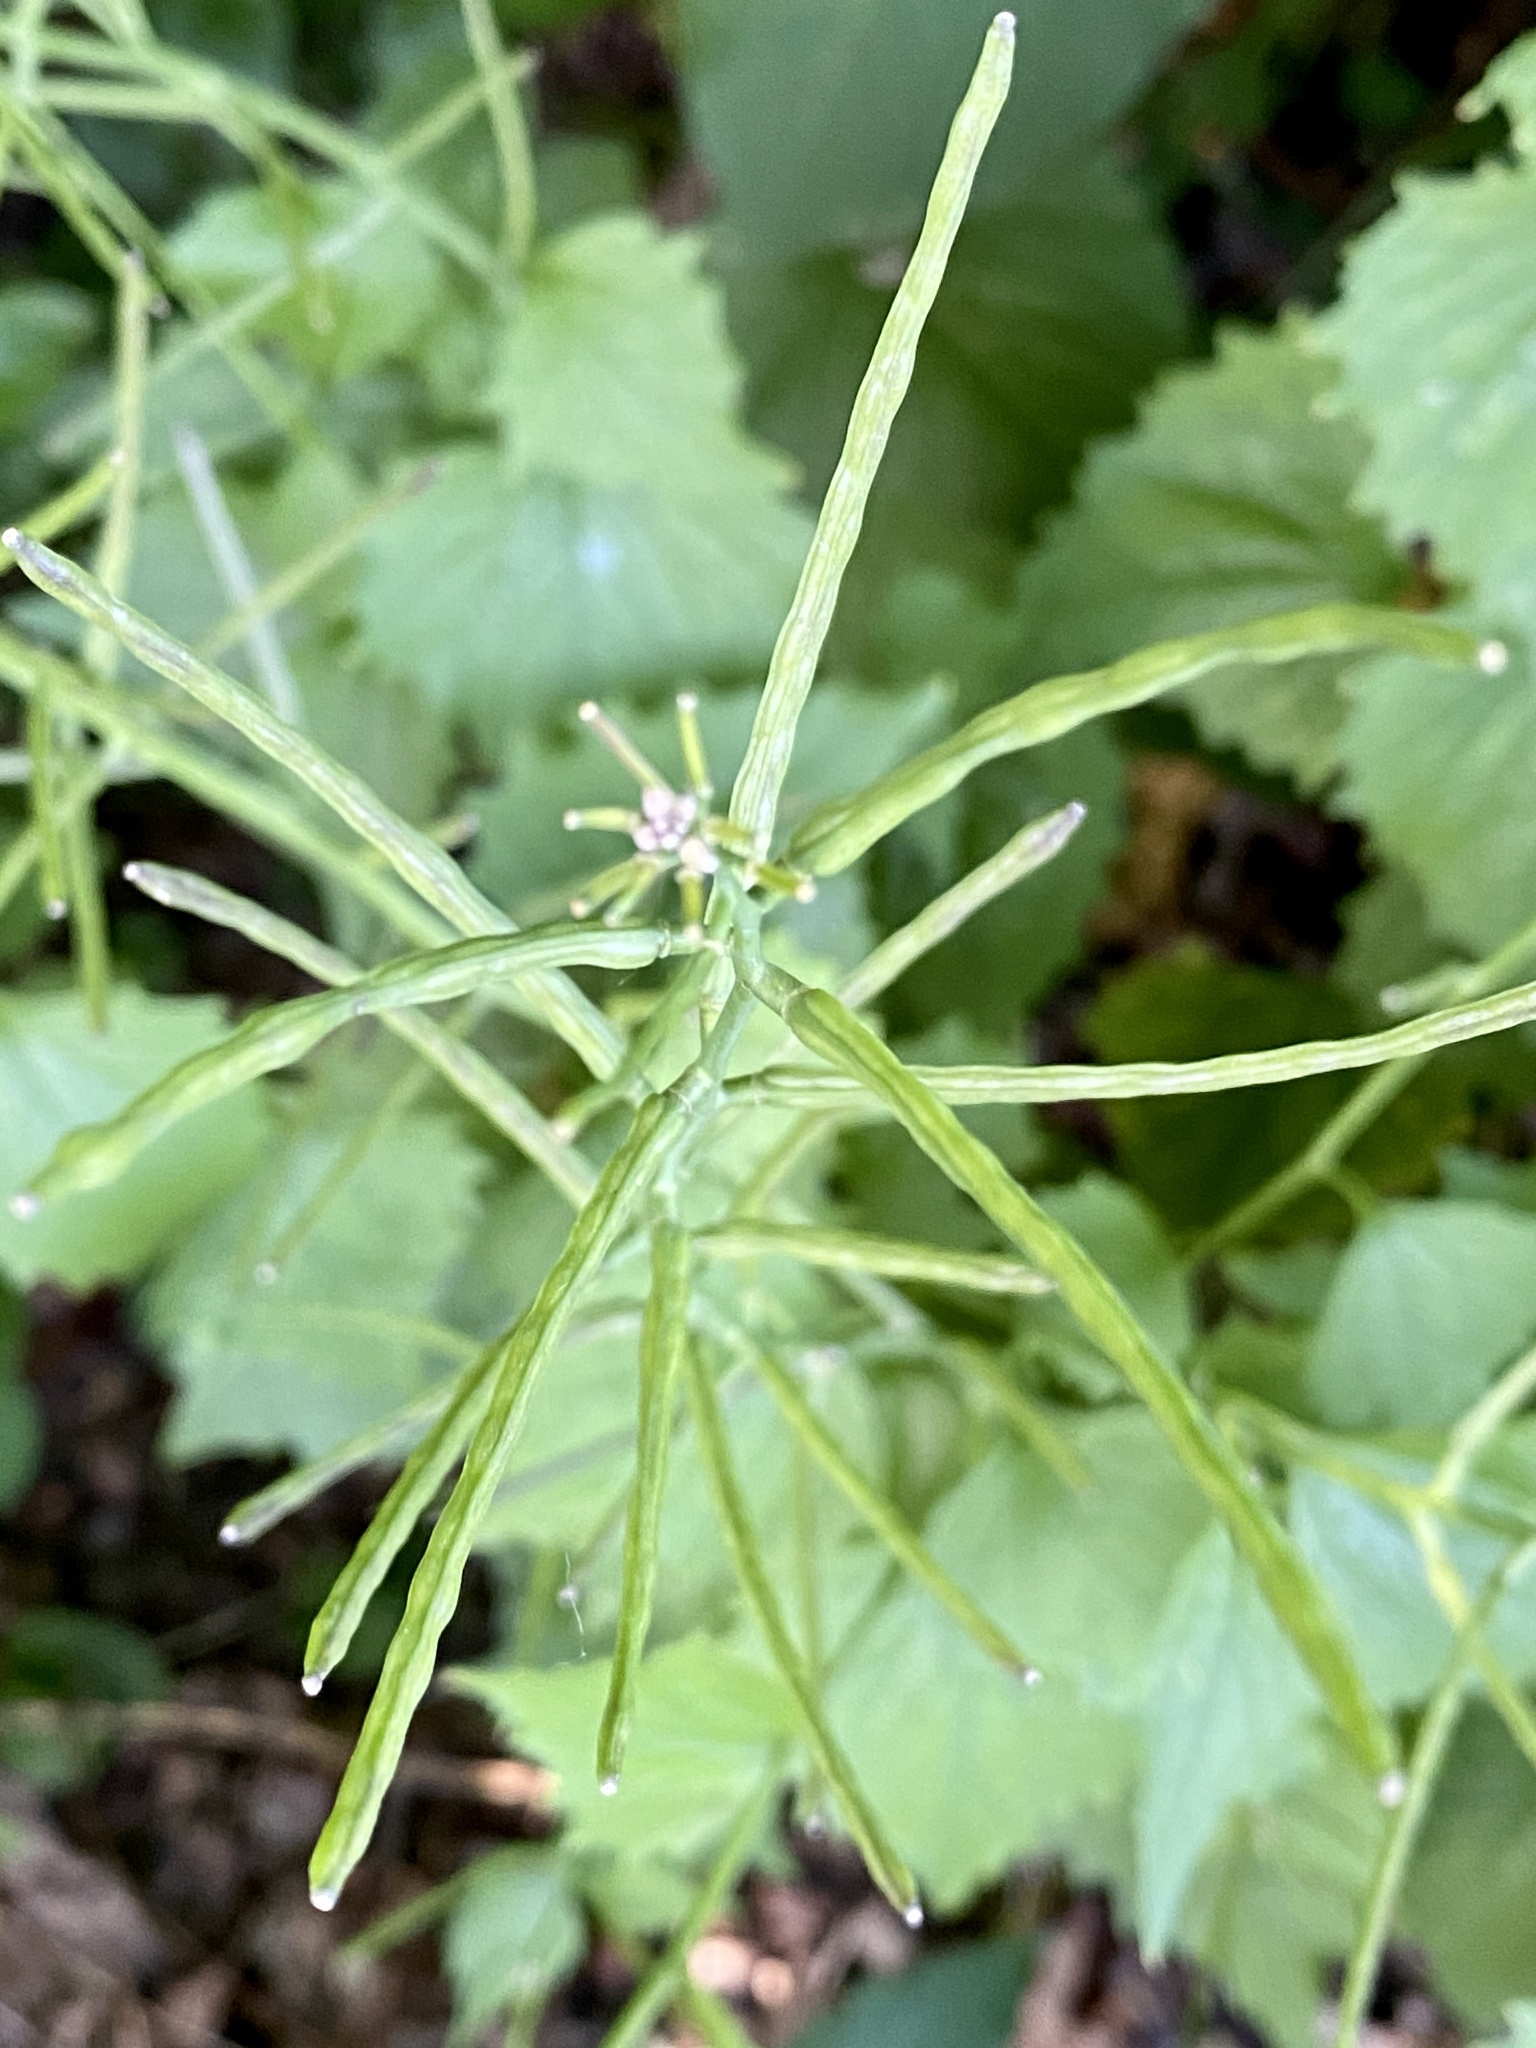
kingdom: Plantae
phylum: Tracheophyta
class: Magnoliopsida
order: Brassicales
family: Brassicaceae
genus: Alliaria
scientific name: Alliaria petiolata
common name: Garlic mustard
